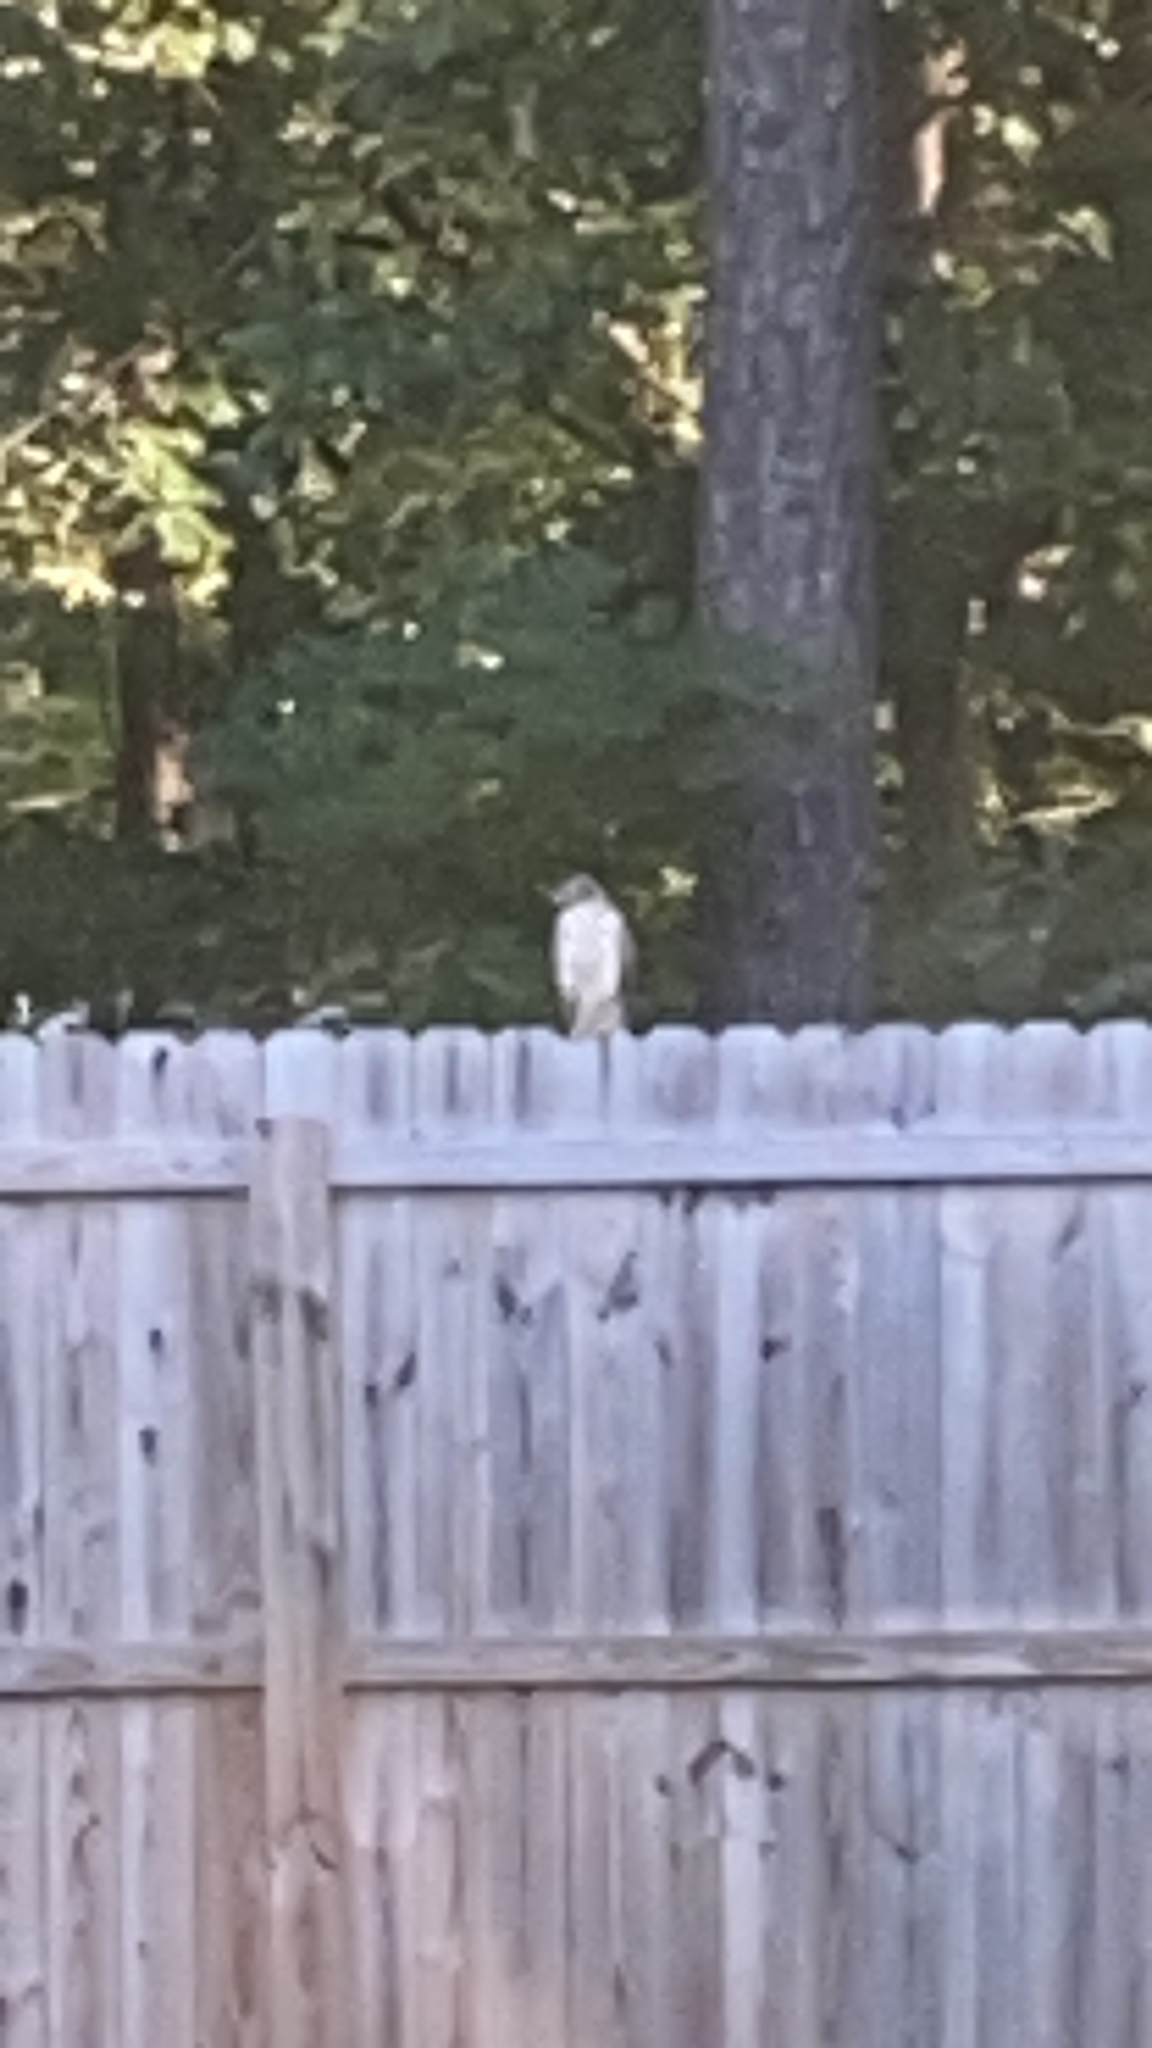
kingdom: Animalia
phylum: Chordata
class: Aves
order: Accipitriformes
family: Accipitridae
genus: Buteo
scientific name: Buteo jamaicensis
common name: Red-tailed hawk
